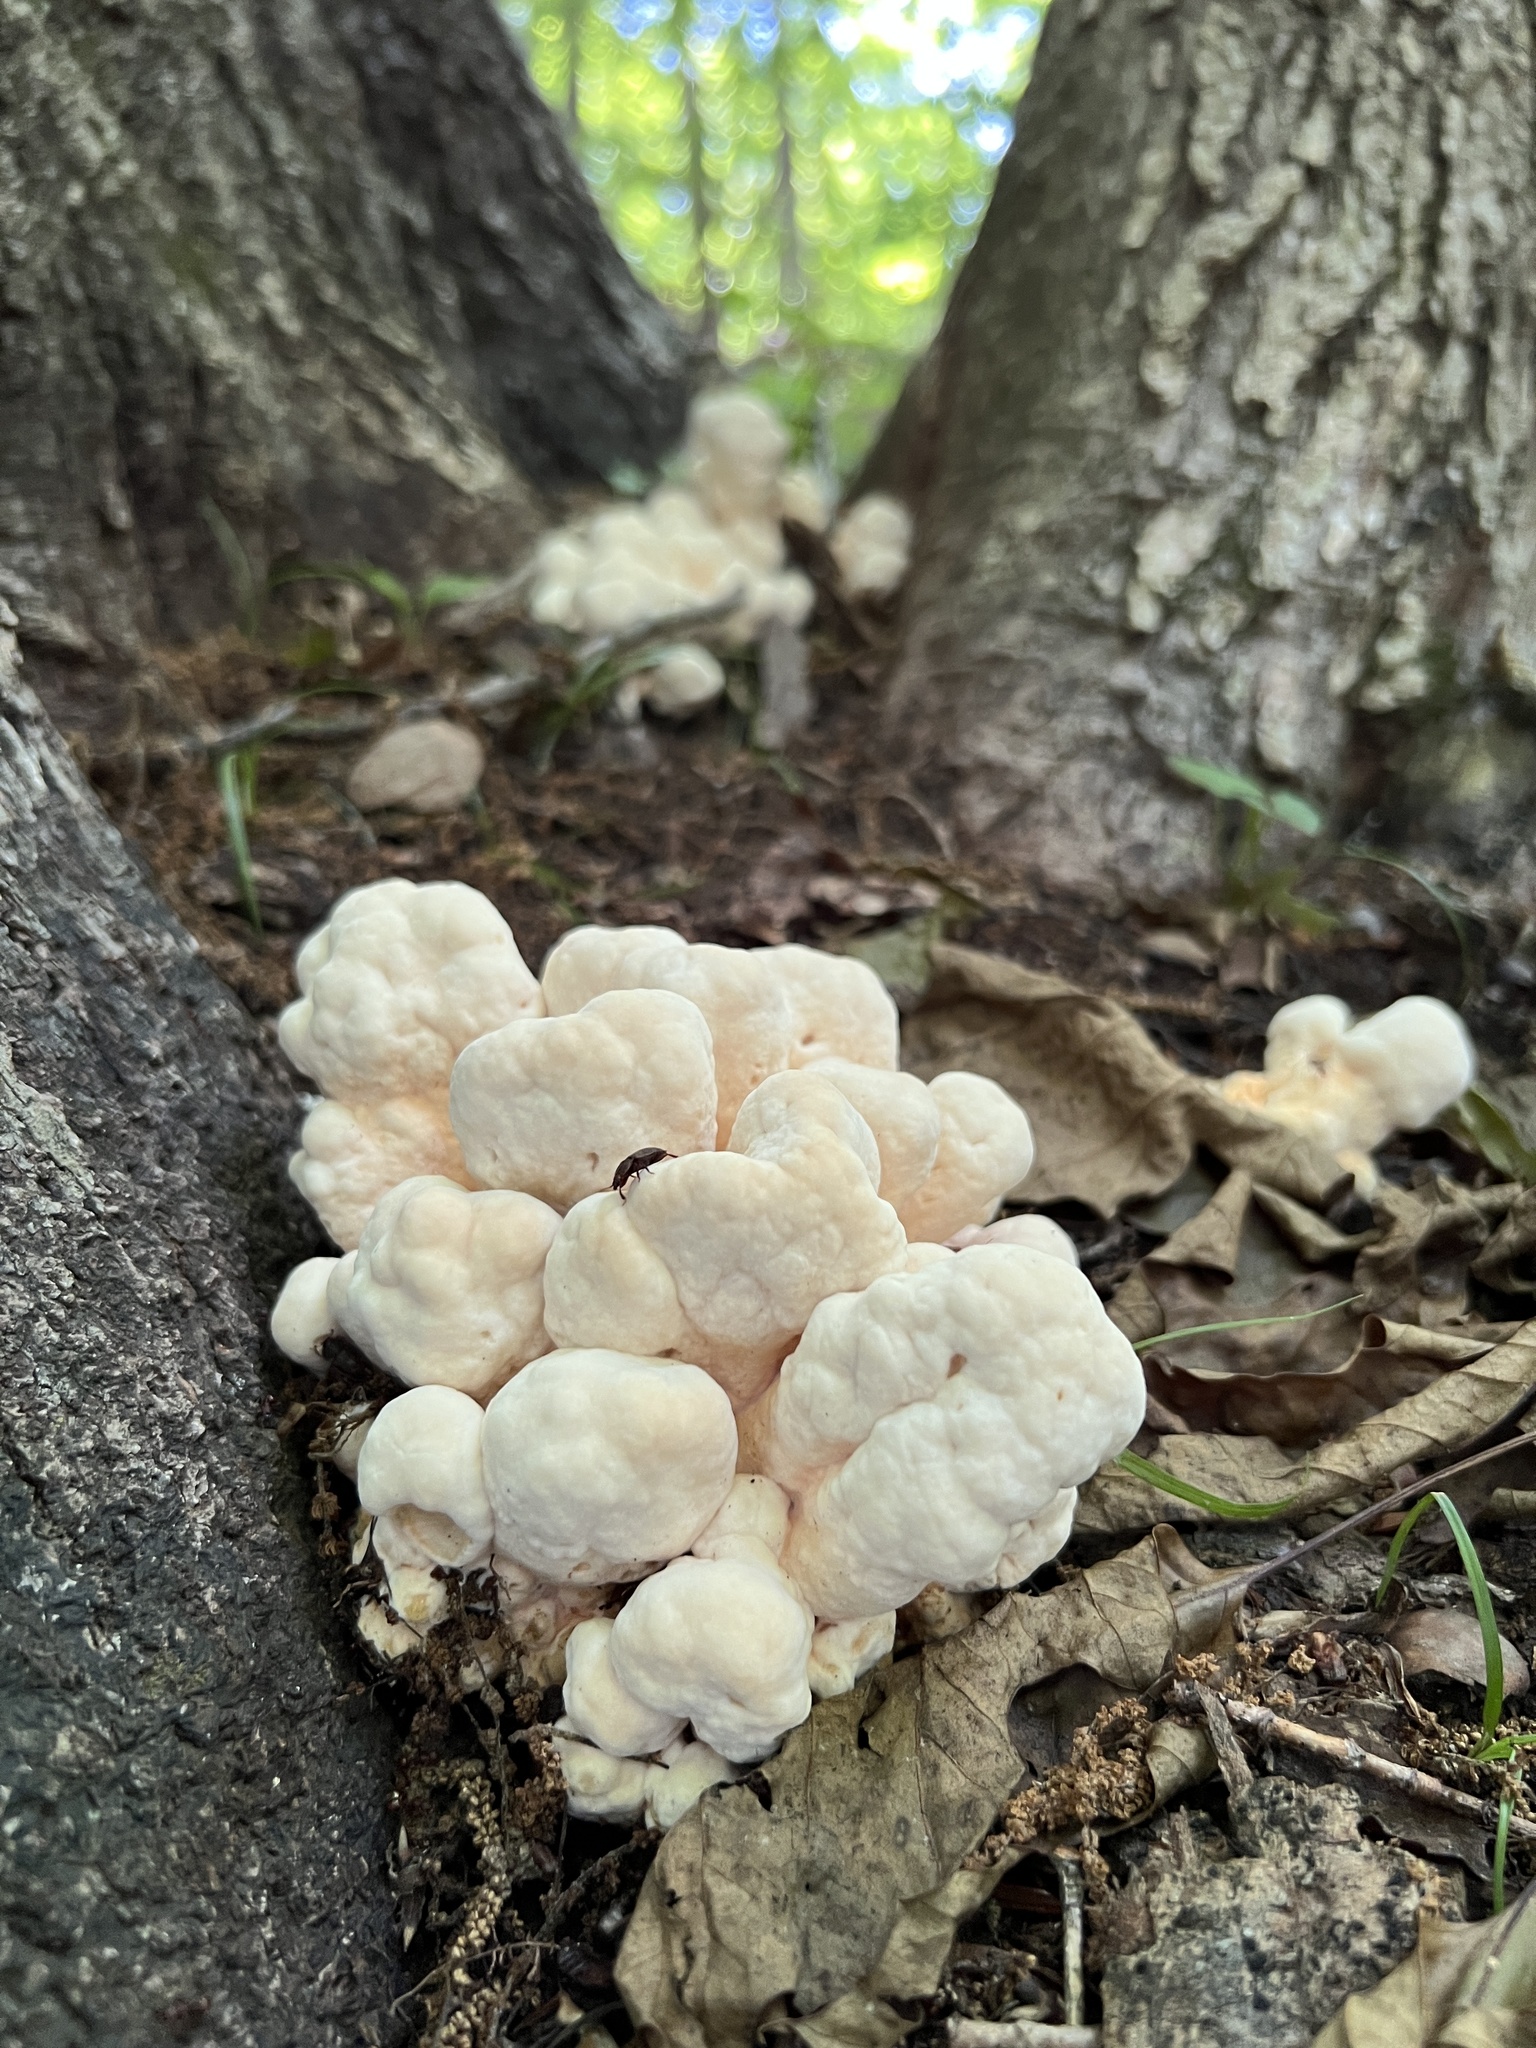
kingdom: Fungi
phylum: Basidiomycota
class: Agaricomycetes
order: Polyporales
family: Laetiporaceae
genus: Laetiporus
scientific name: Laetiporus sulphureus
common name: Chicken of the woods
